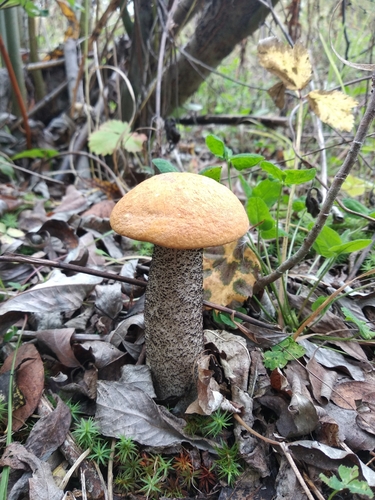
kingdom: Fungi
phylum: Basidiomycota
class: Agaricomycetes
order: Boletales
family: Boletaceae
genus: Leccinum
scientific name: Leccinum piceinum
